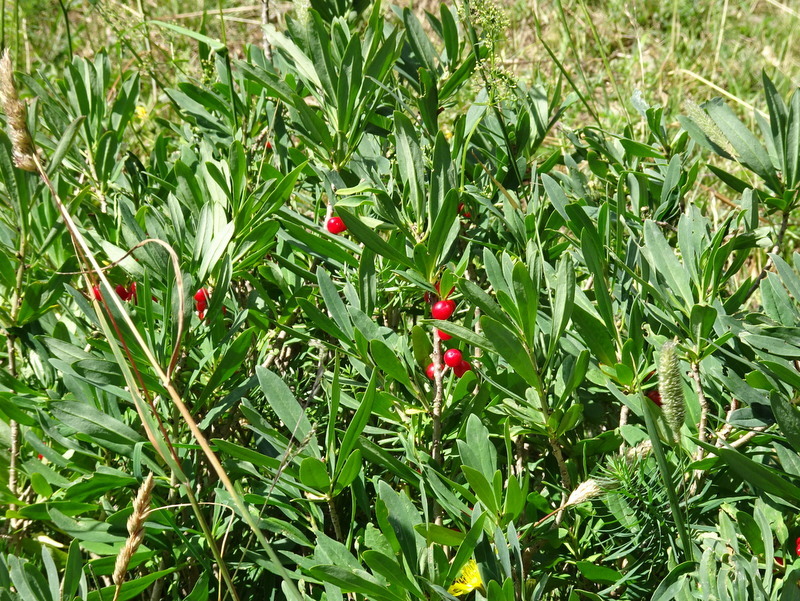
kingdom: Plantae
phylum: Tracheophyta
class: Magnoliopsida
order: Malvales
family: Thymelaeaceae
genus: Daphne
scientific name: Daphne mezereum
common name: Mezereon
